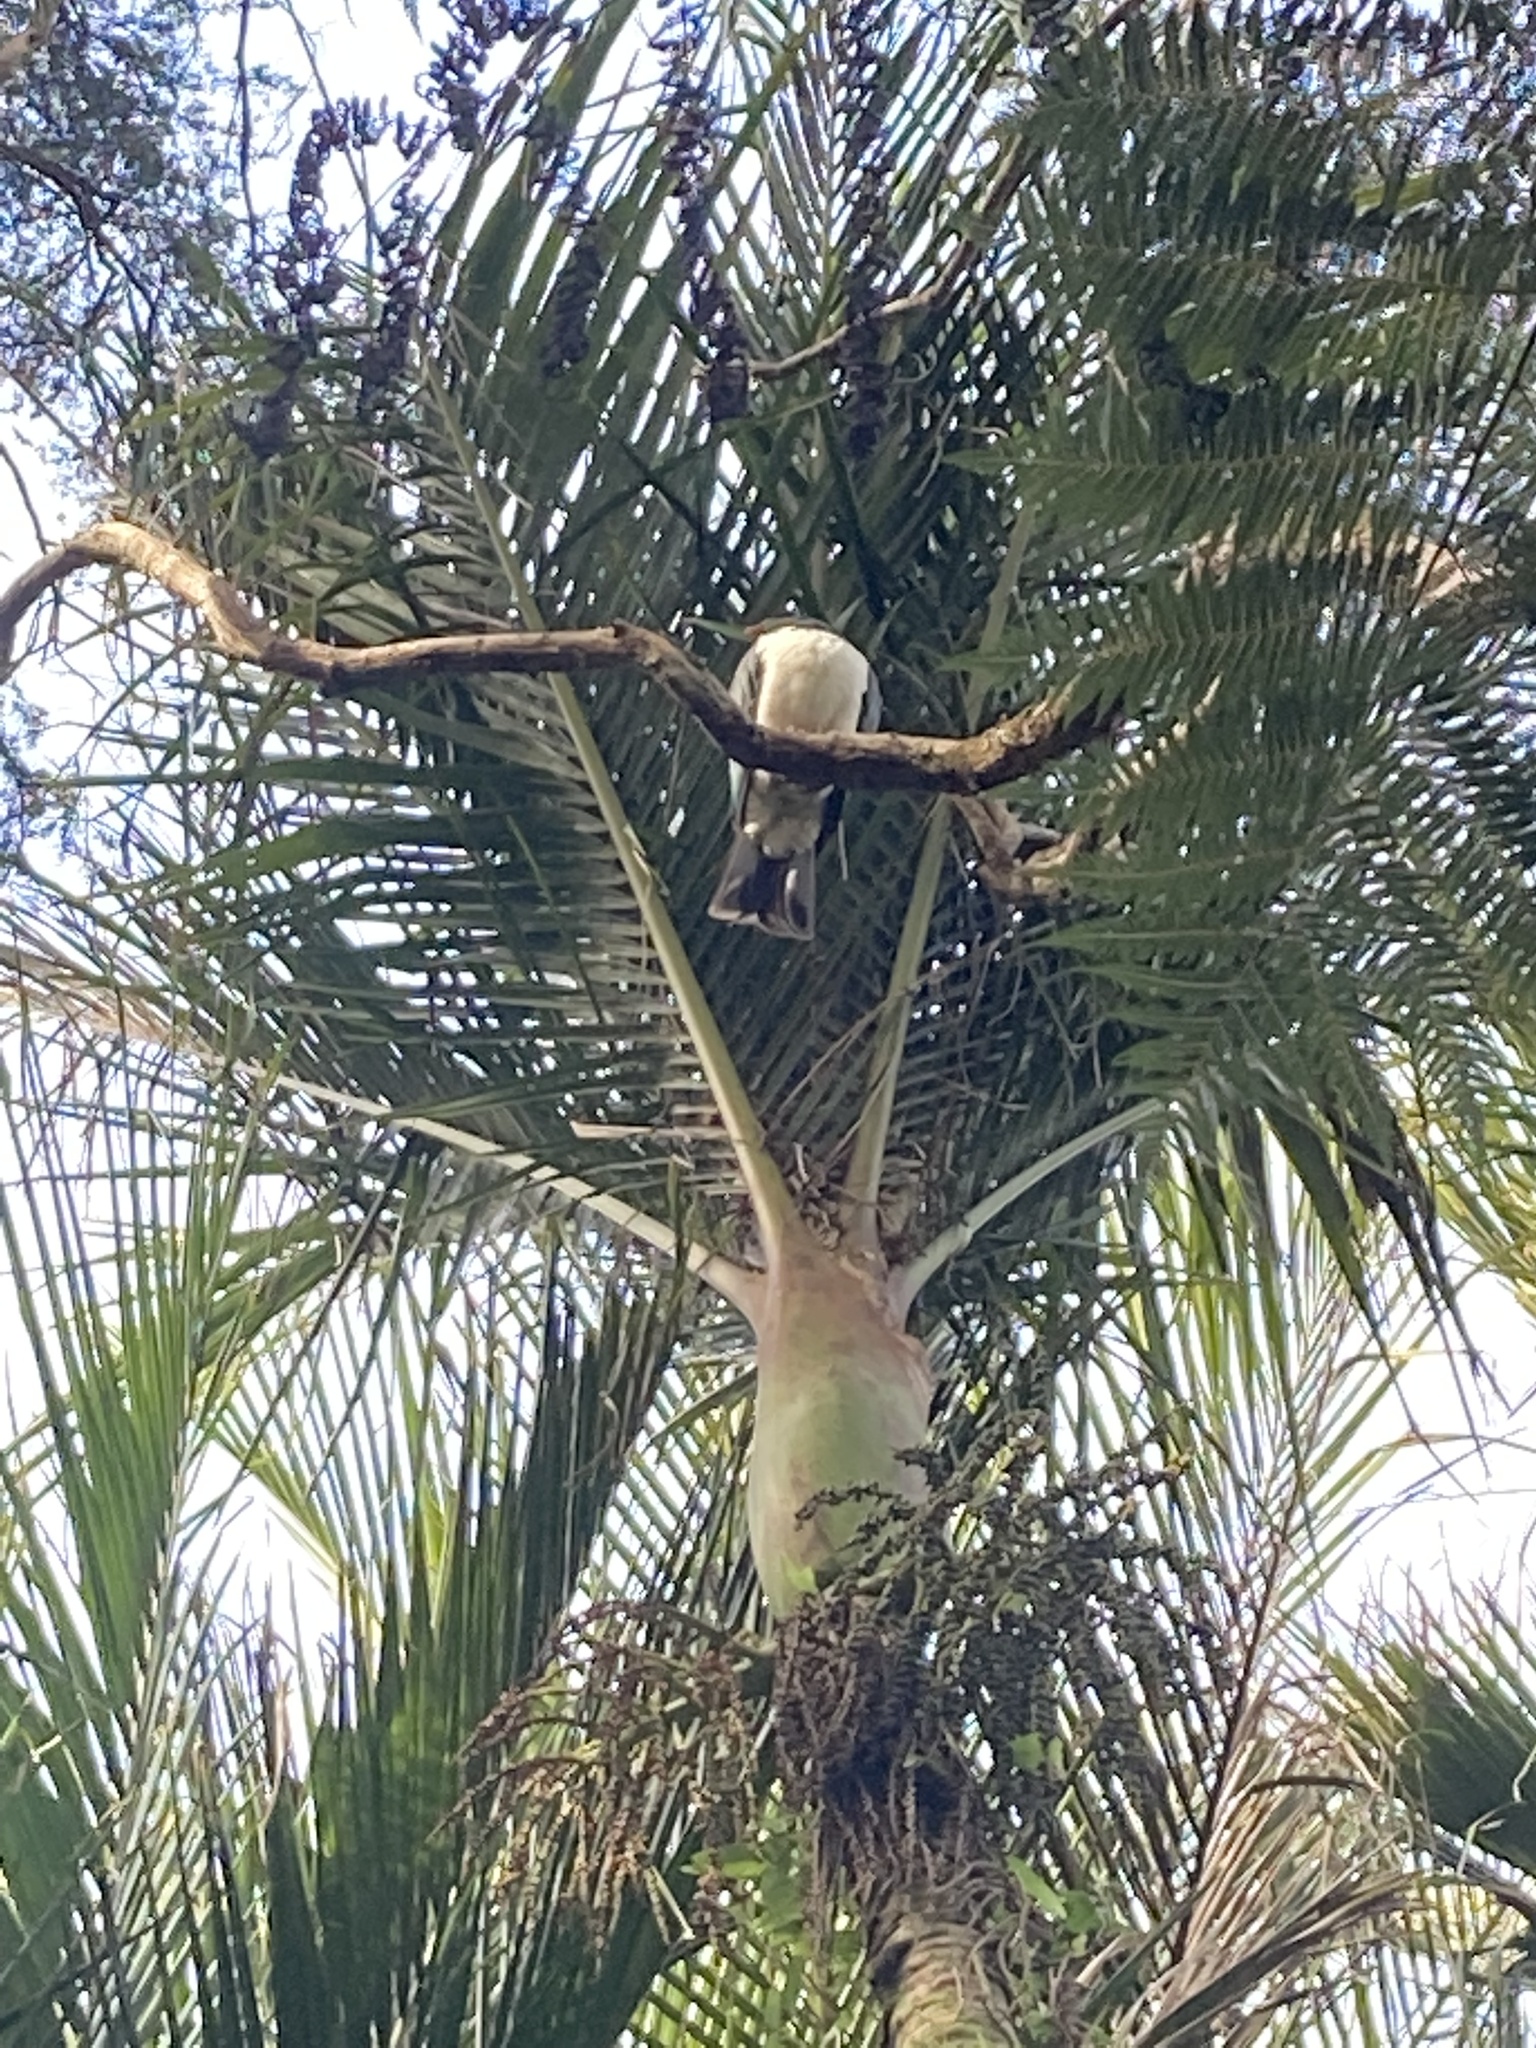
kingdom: Animalia
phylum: Chordata
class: Aves
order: Columbiformes
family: Columbidae
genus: Hemiphaga
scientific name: Hemiphaga novaeseelandiae
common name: New zealand pigeon
